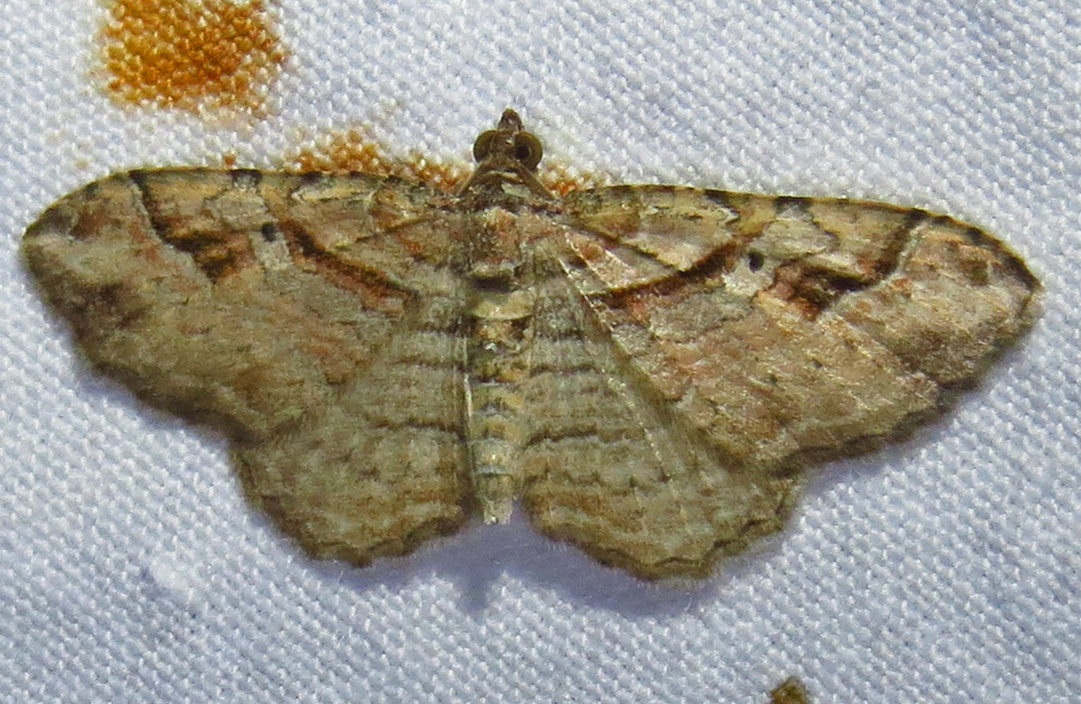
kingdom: Animalia
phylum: Arthropoda
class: Insecta
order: Lepidoptera
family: Geometridae
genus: Costaconvexa
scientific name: Costaconvexa centrostrigaria
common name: Bent-line carpet
